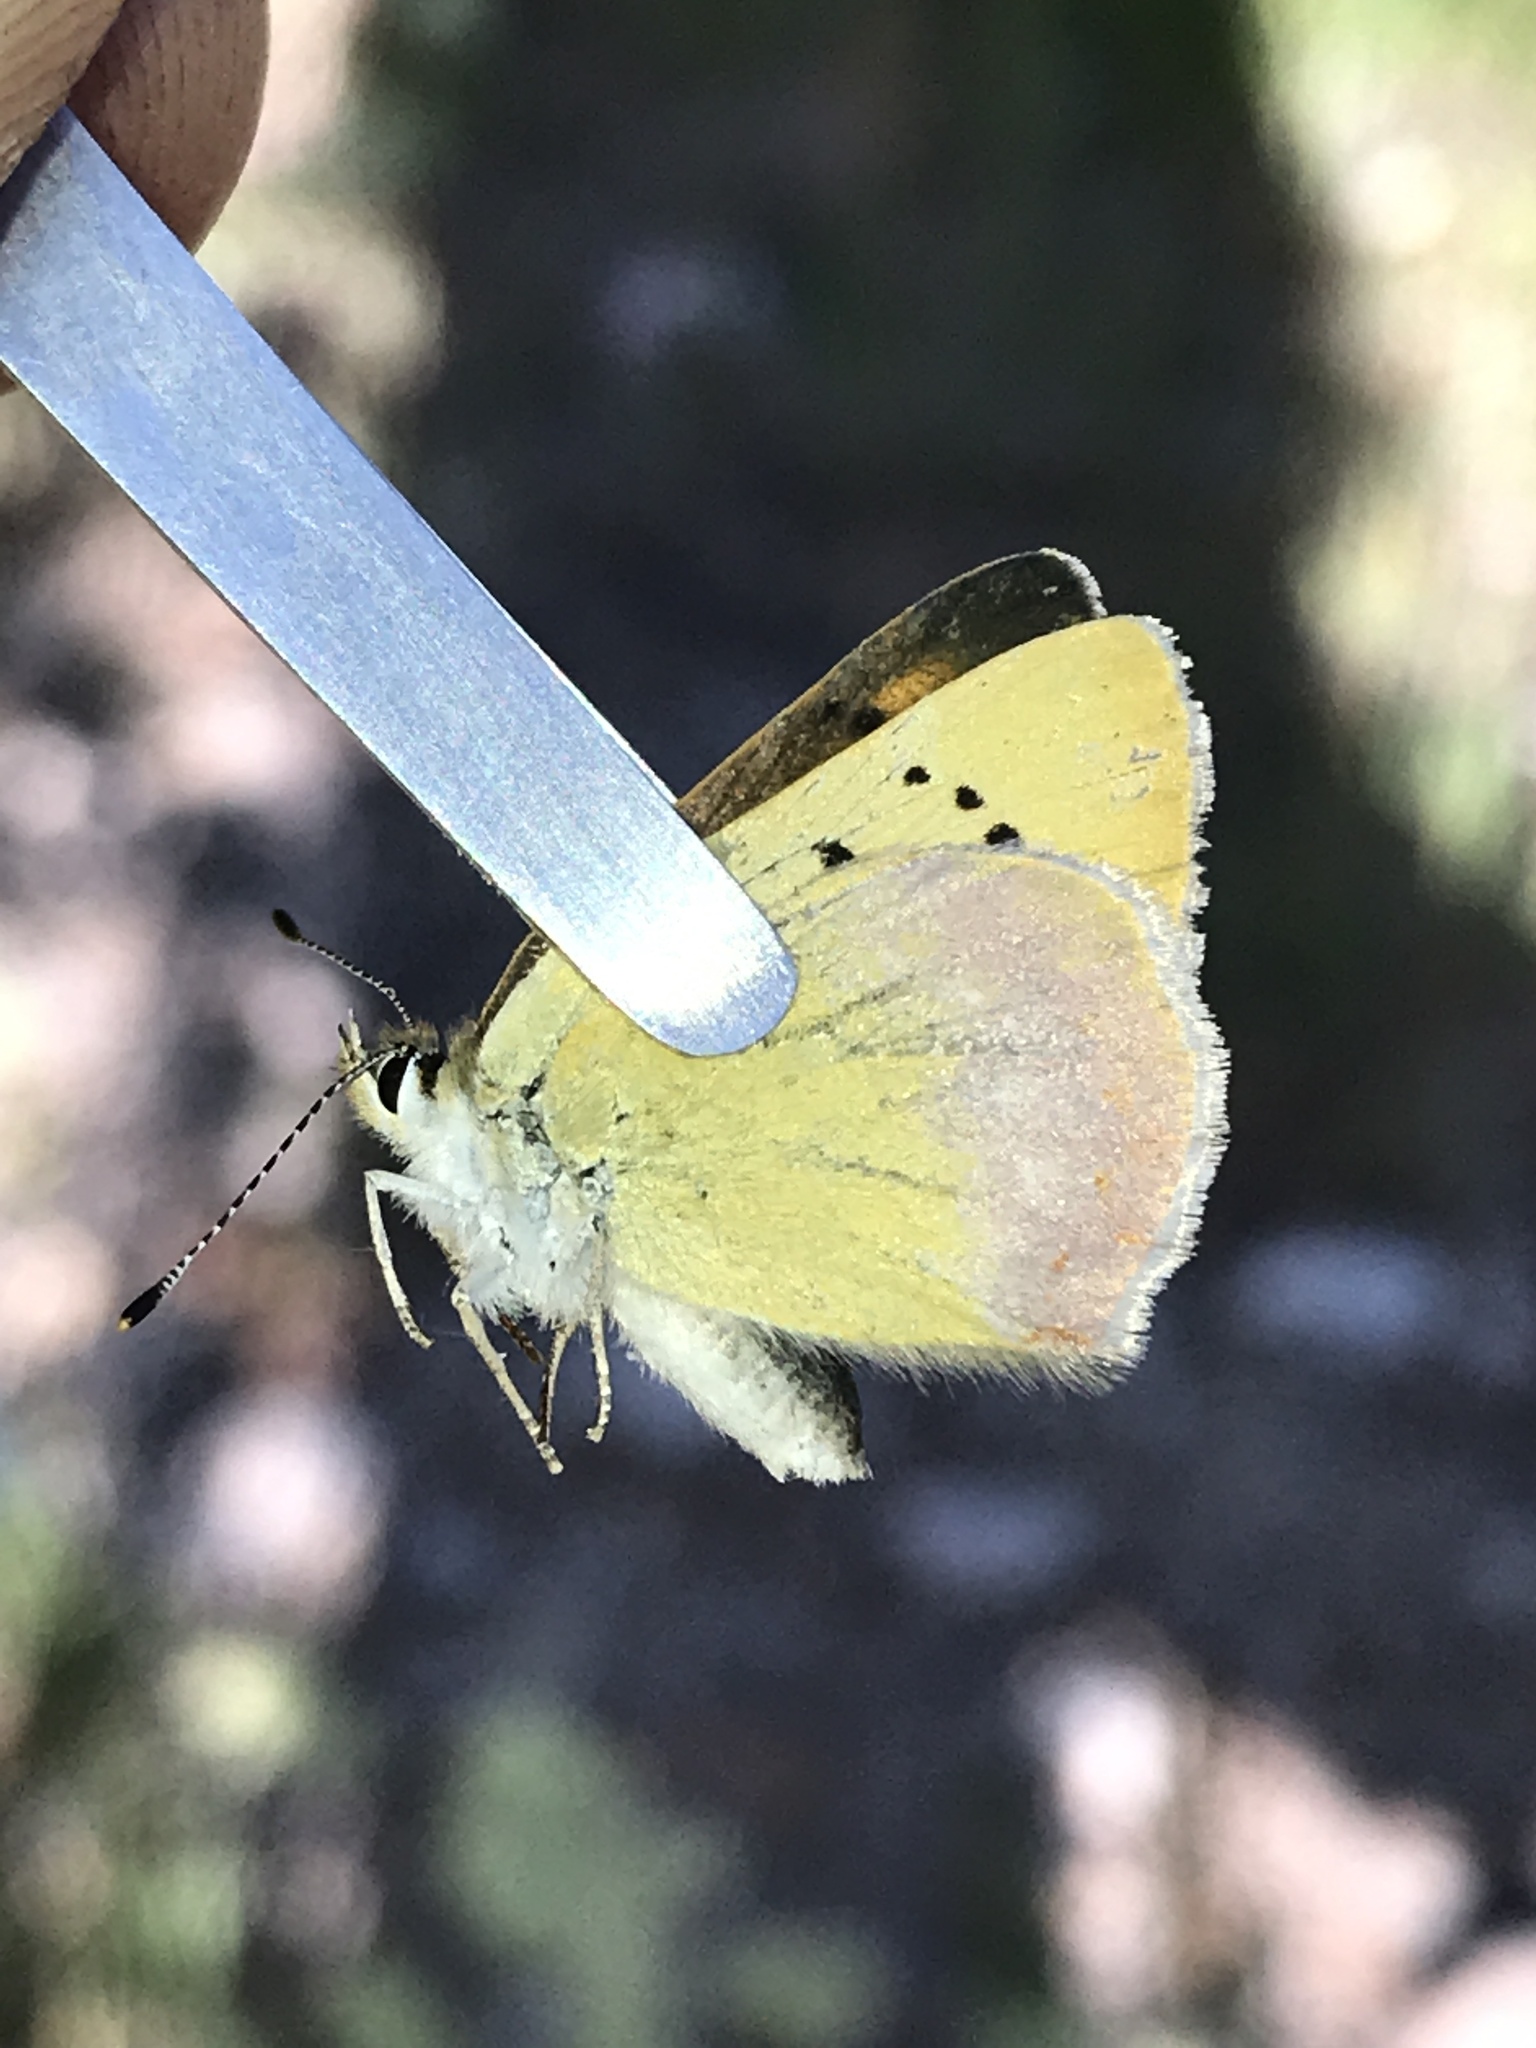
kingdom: Animalia
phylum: Arthropoda
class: Insecta
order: Lepidoptera
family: Lycaenidae
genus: Tharsalea
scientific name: Tharsalea nivalis
